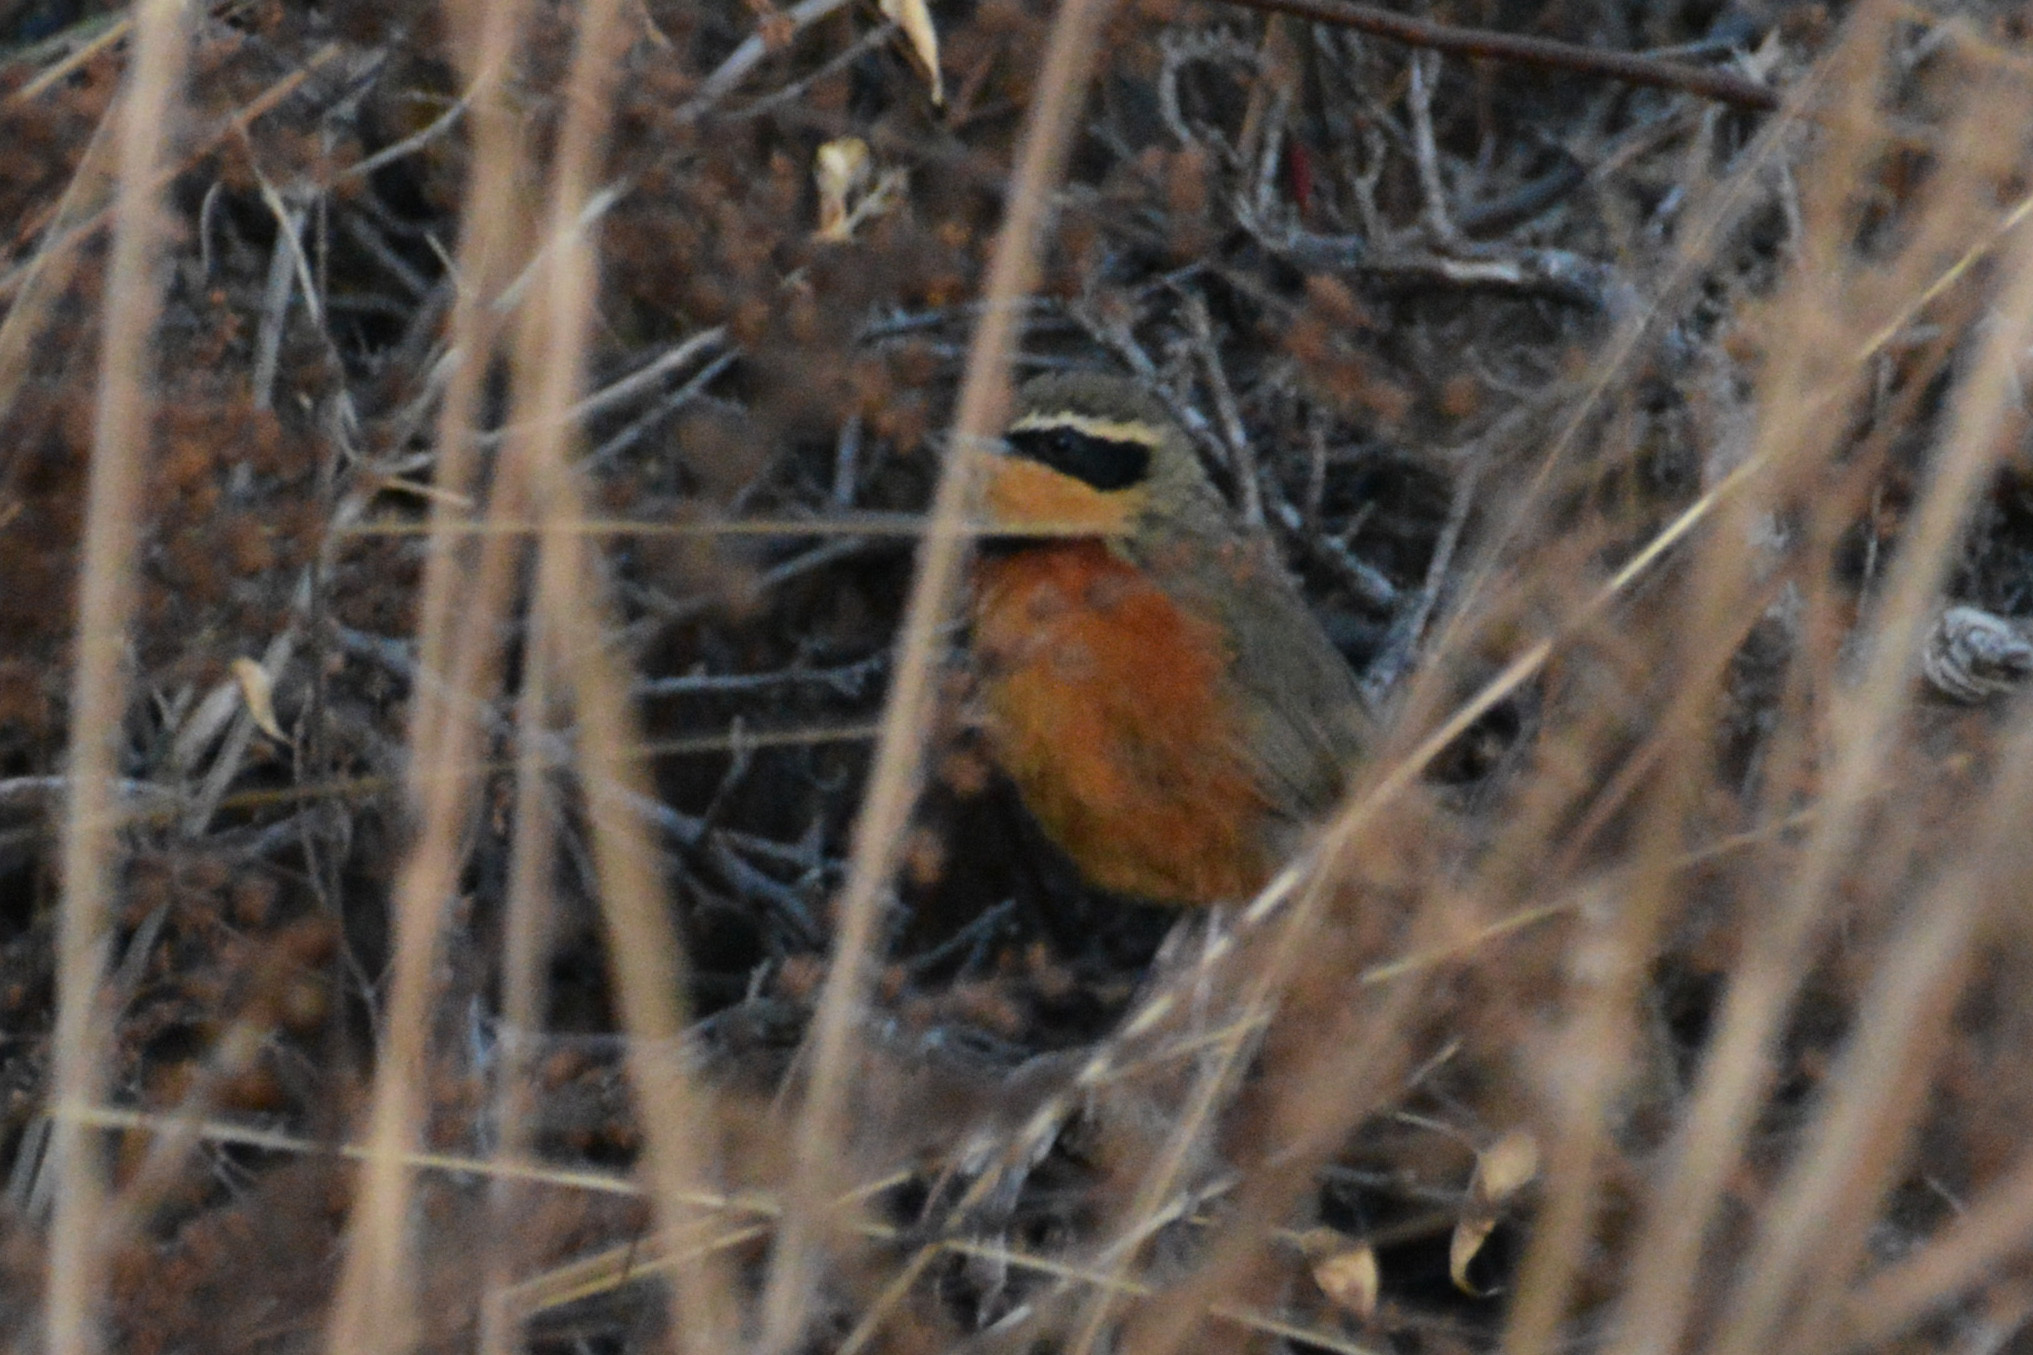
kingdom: Animalia
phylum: Chordata
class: Aves
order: Passeriformes
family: Melanopareiidae
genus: Melanopareia
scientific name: Melanopareia maximiliani
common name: Olive-crowned crescentchest
